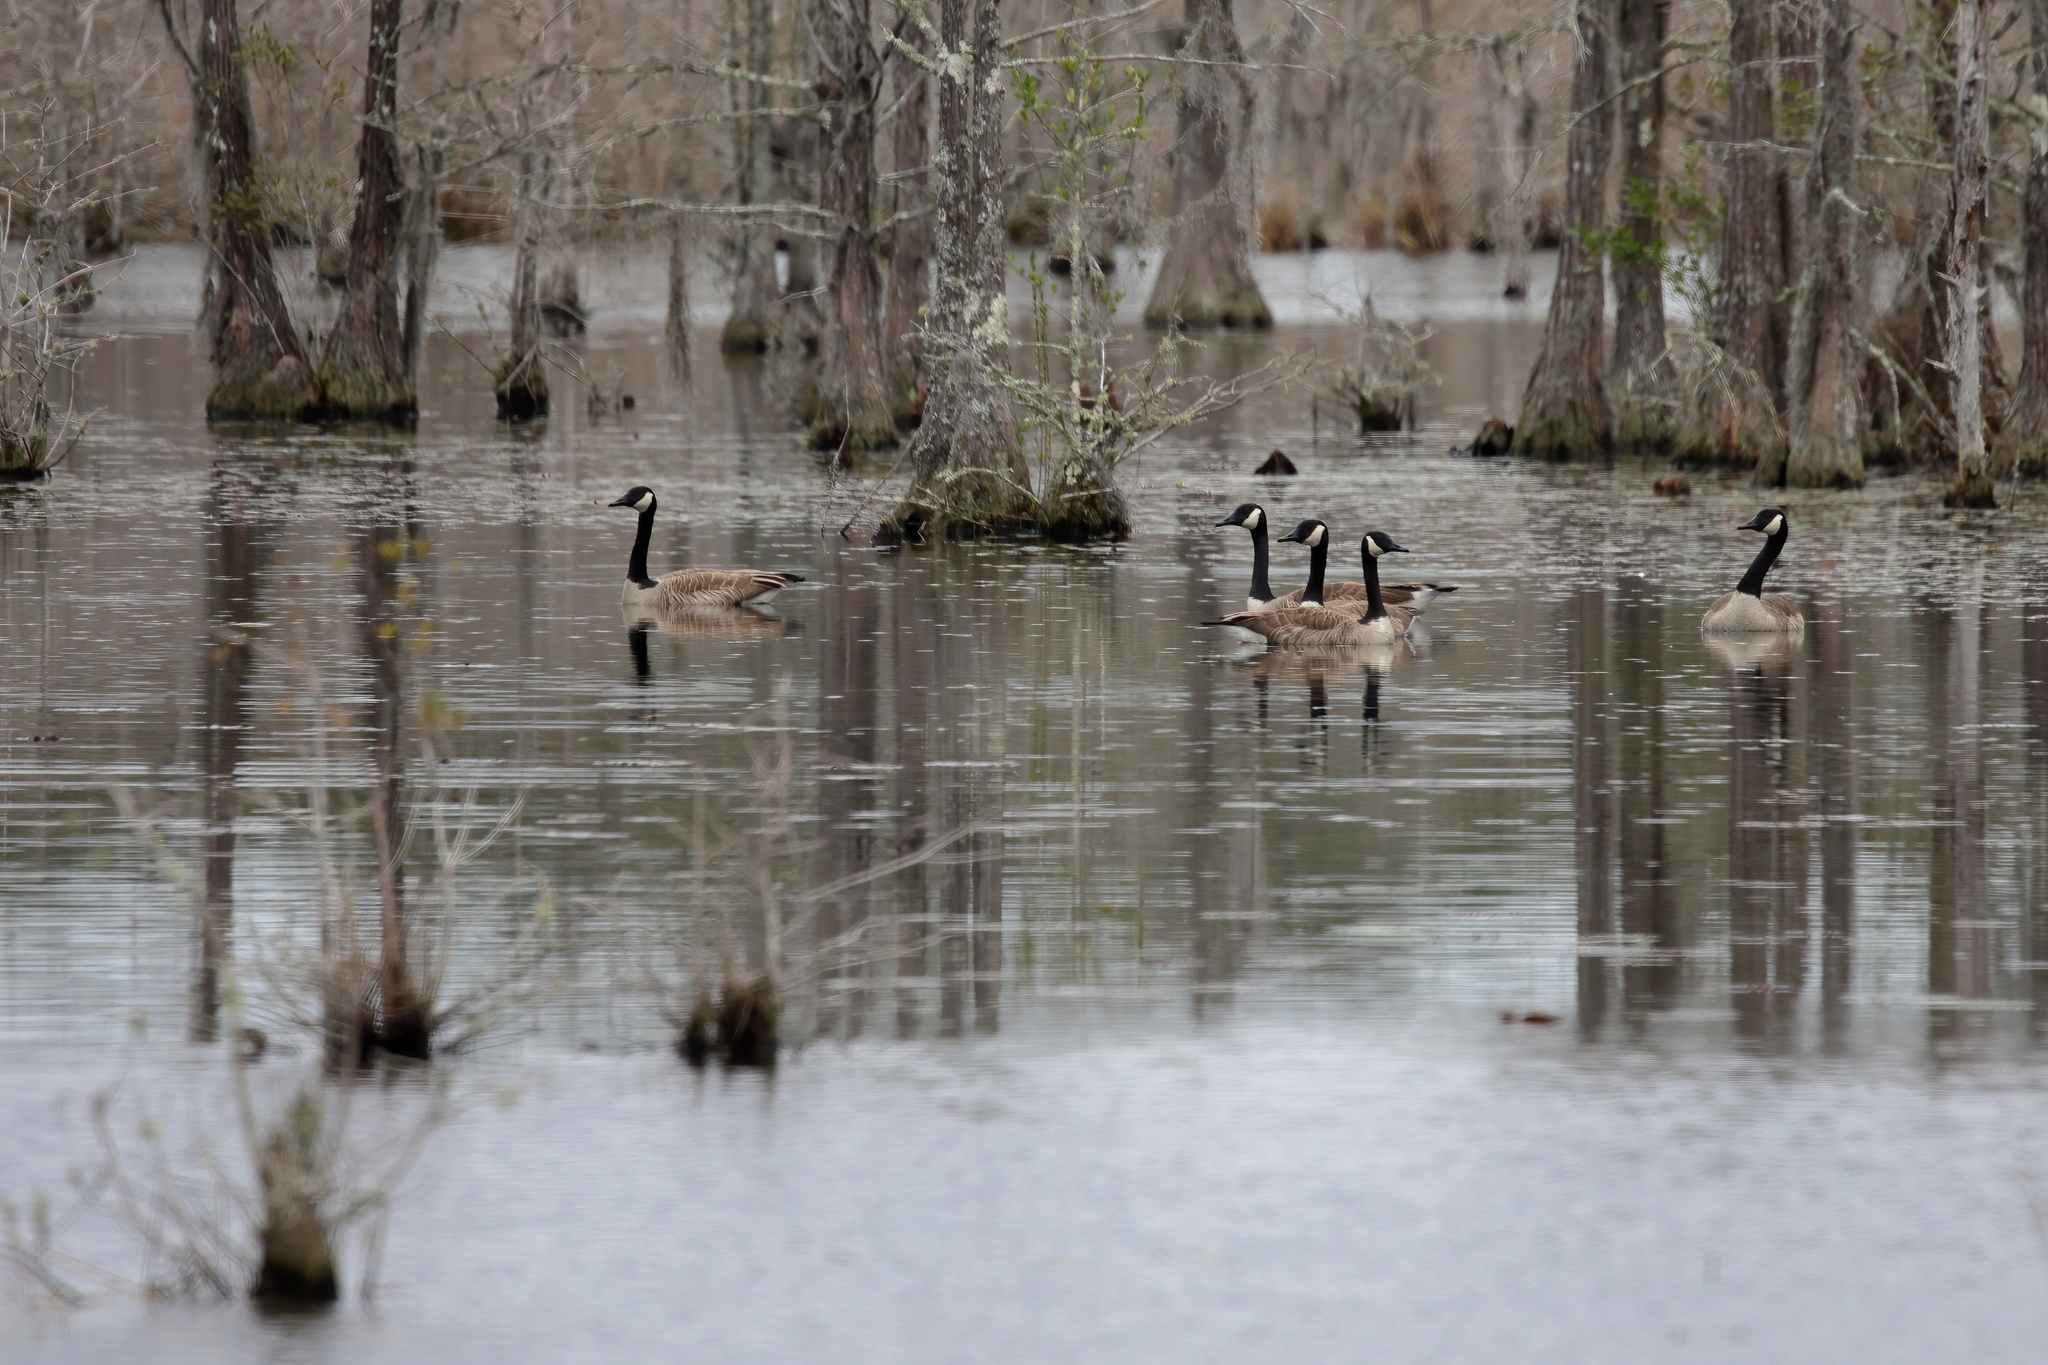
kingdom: Animalia
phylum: Chordata
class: Aves
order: Anseriformes
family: Anatidae
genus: Branta
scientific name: Branta canadensis
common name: Canada goose
